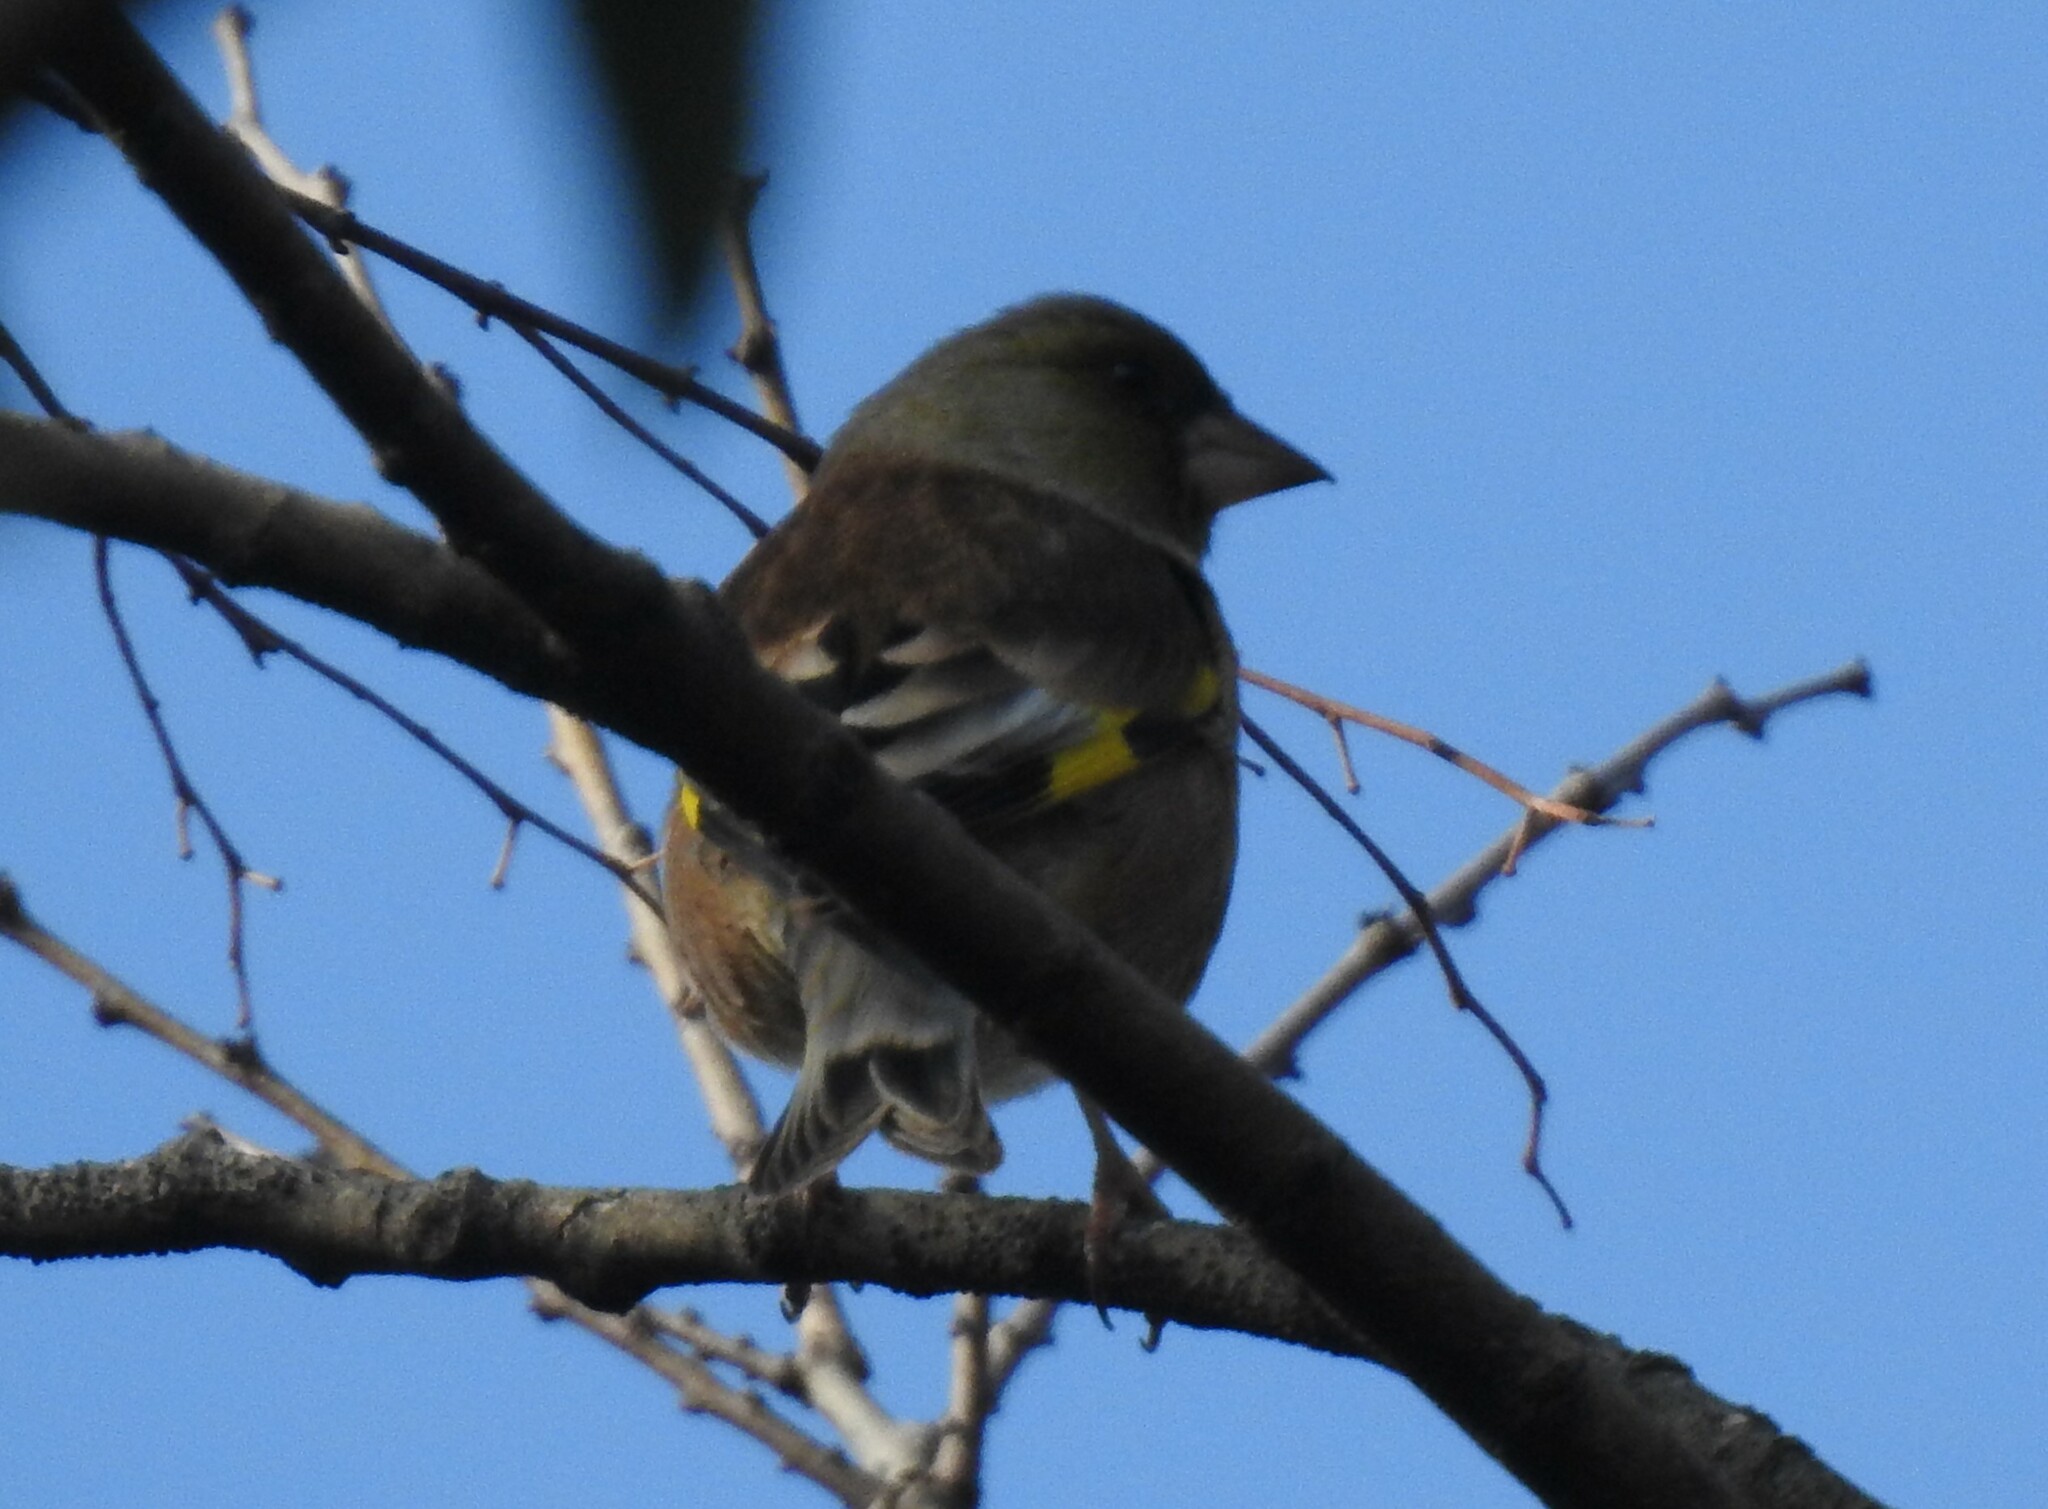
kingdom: Plantae
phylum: Tracheophyta
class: Liliopsida
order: Poales
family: Poaceae
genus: Chloris
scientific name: Chloris sinica
